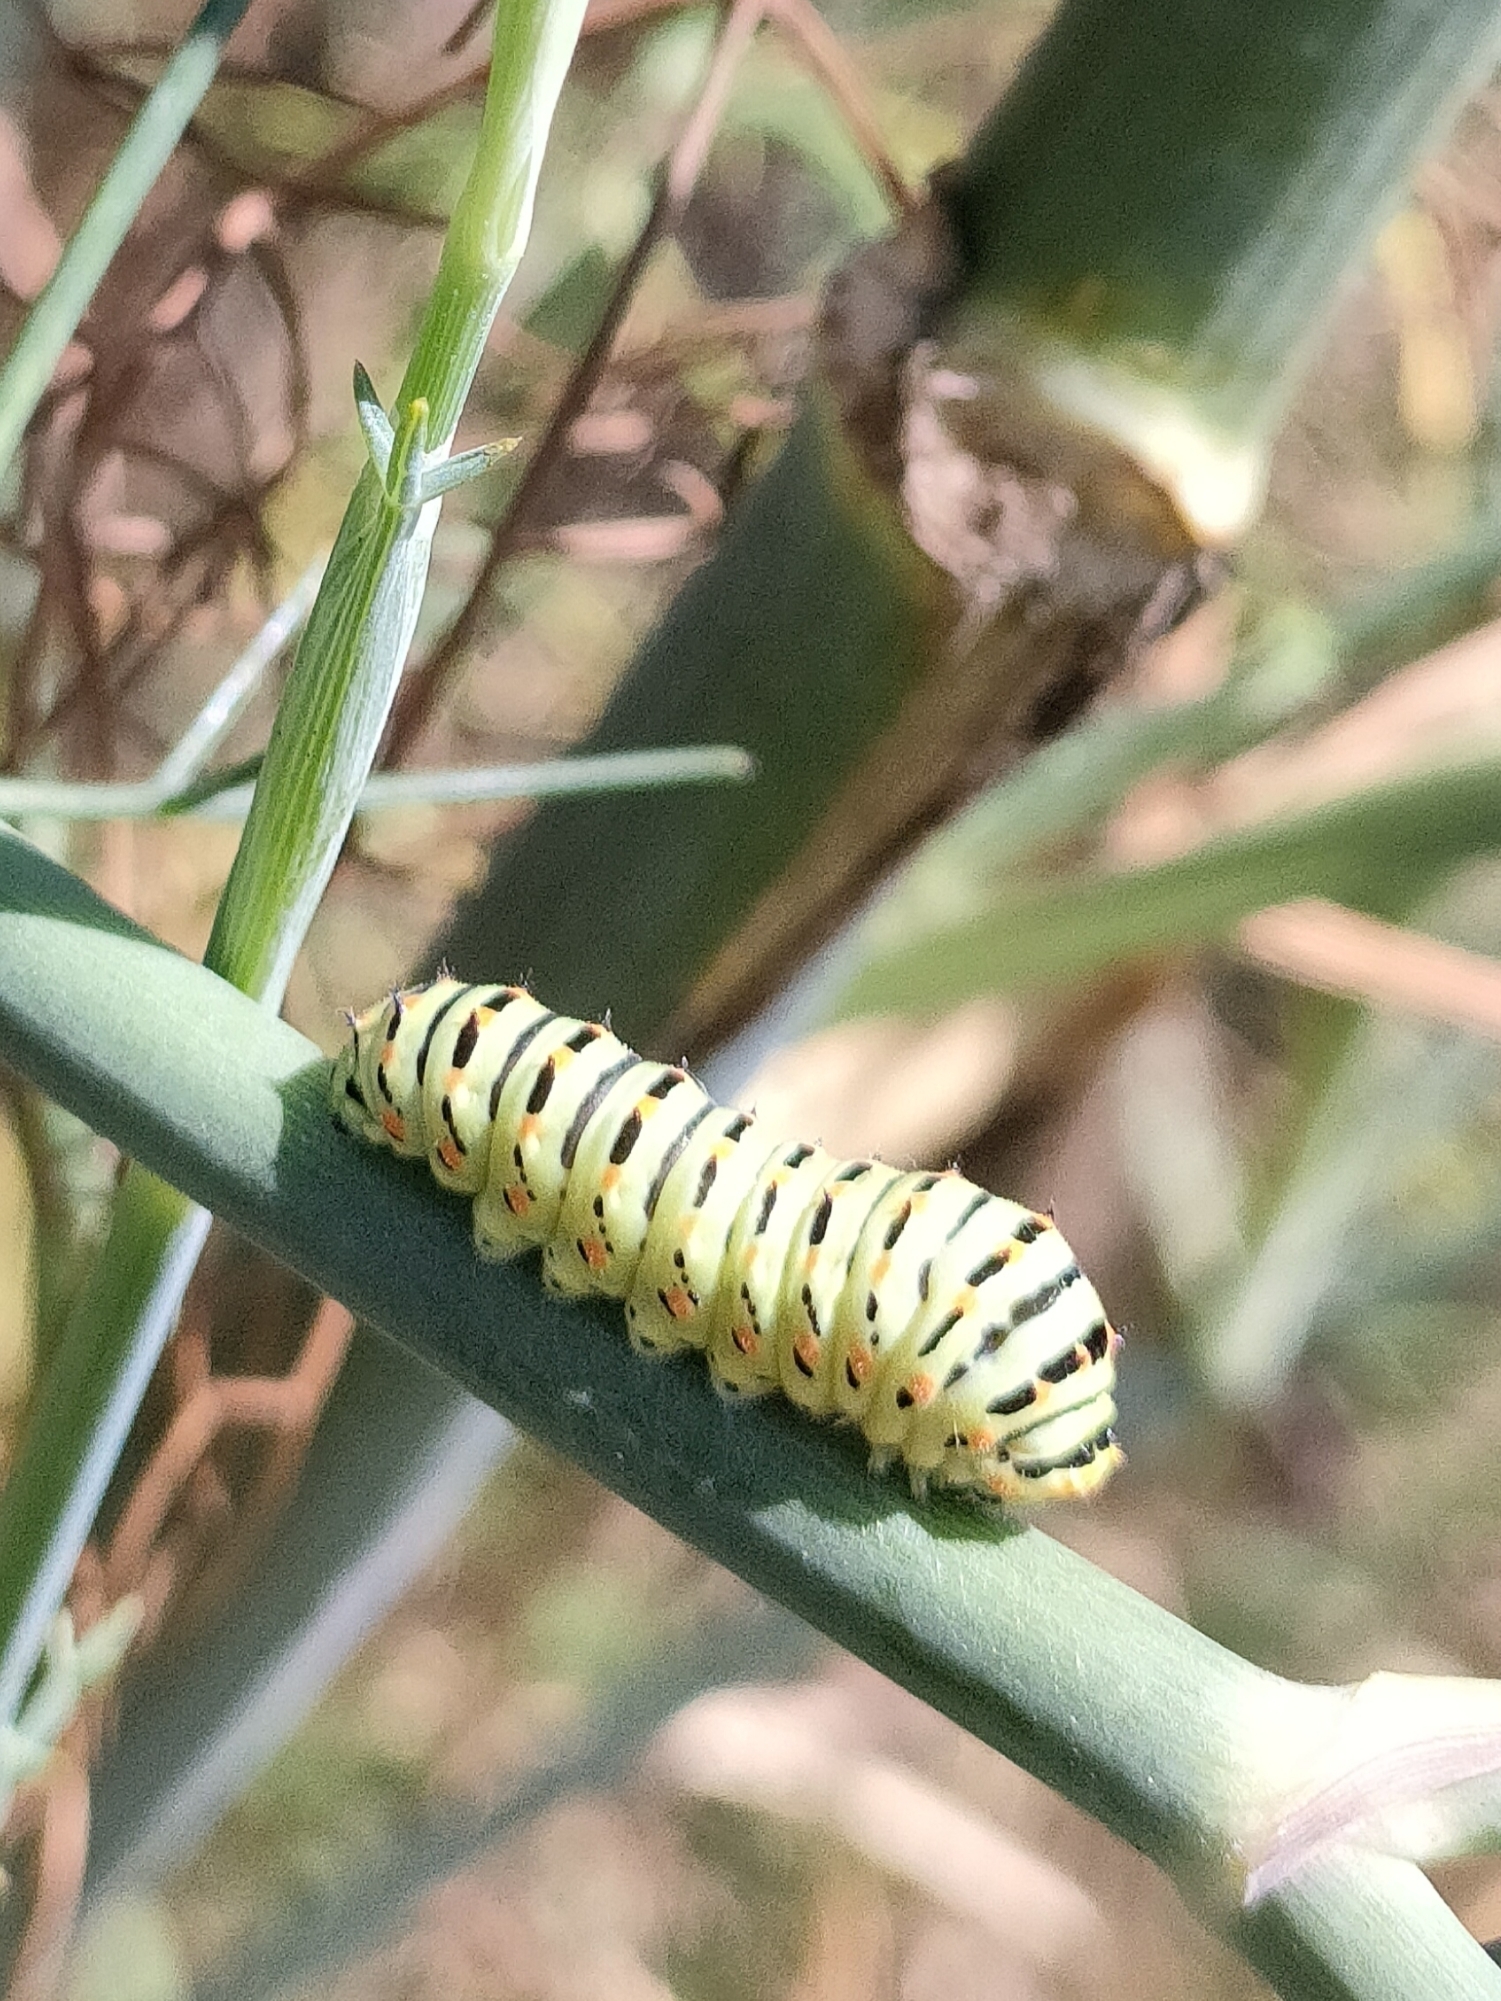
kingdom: Animalia
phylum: Arthropoda
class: Insecta
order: Lepidoptera
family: Papilionidae
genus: Papilio
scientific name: Papilio machaon
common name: Swallowtail
